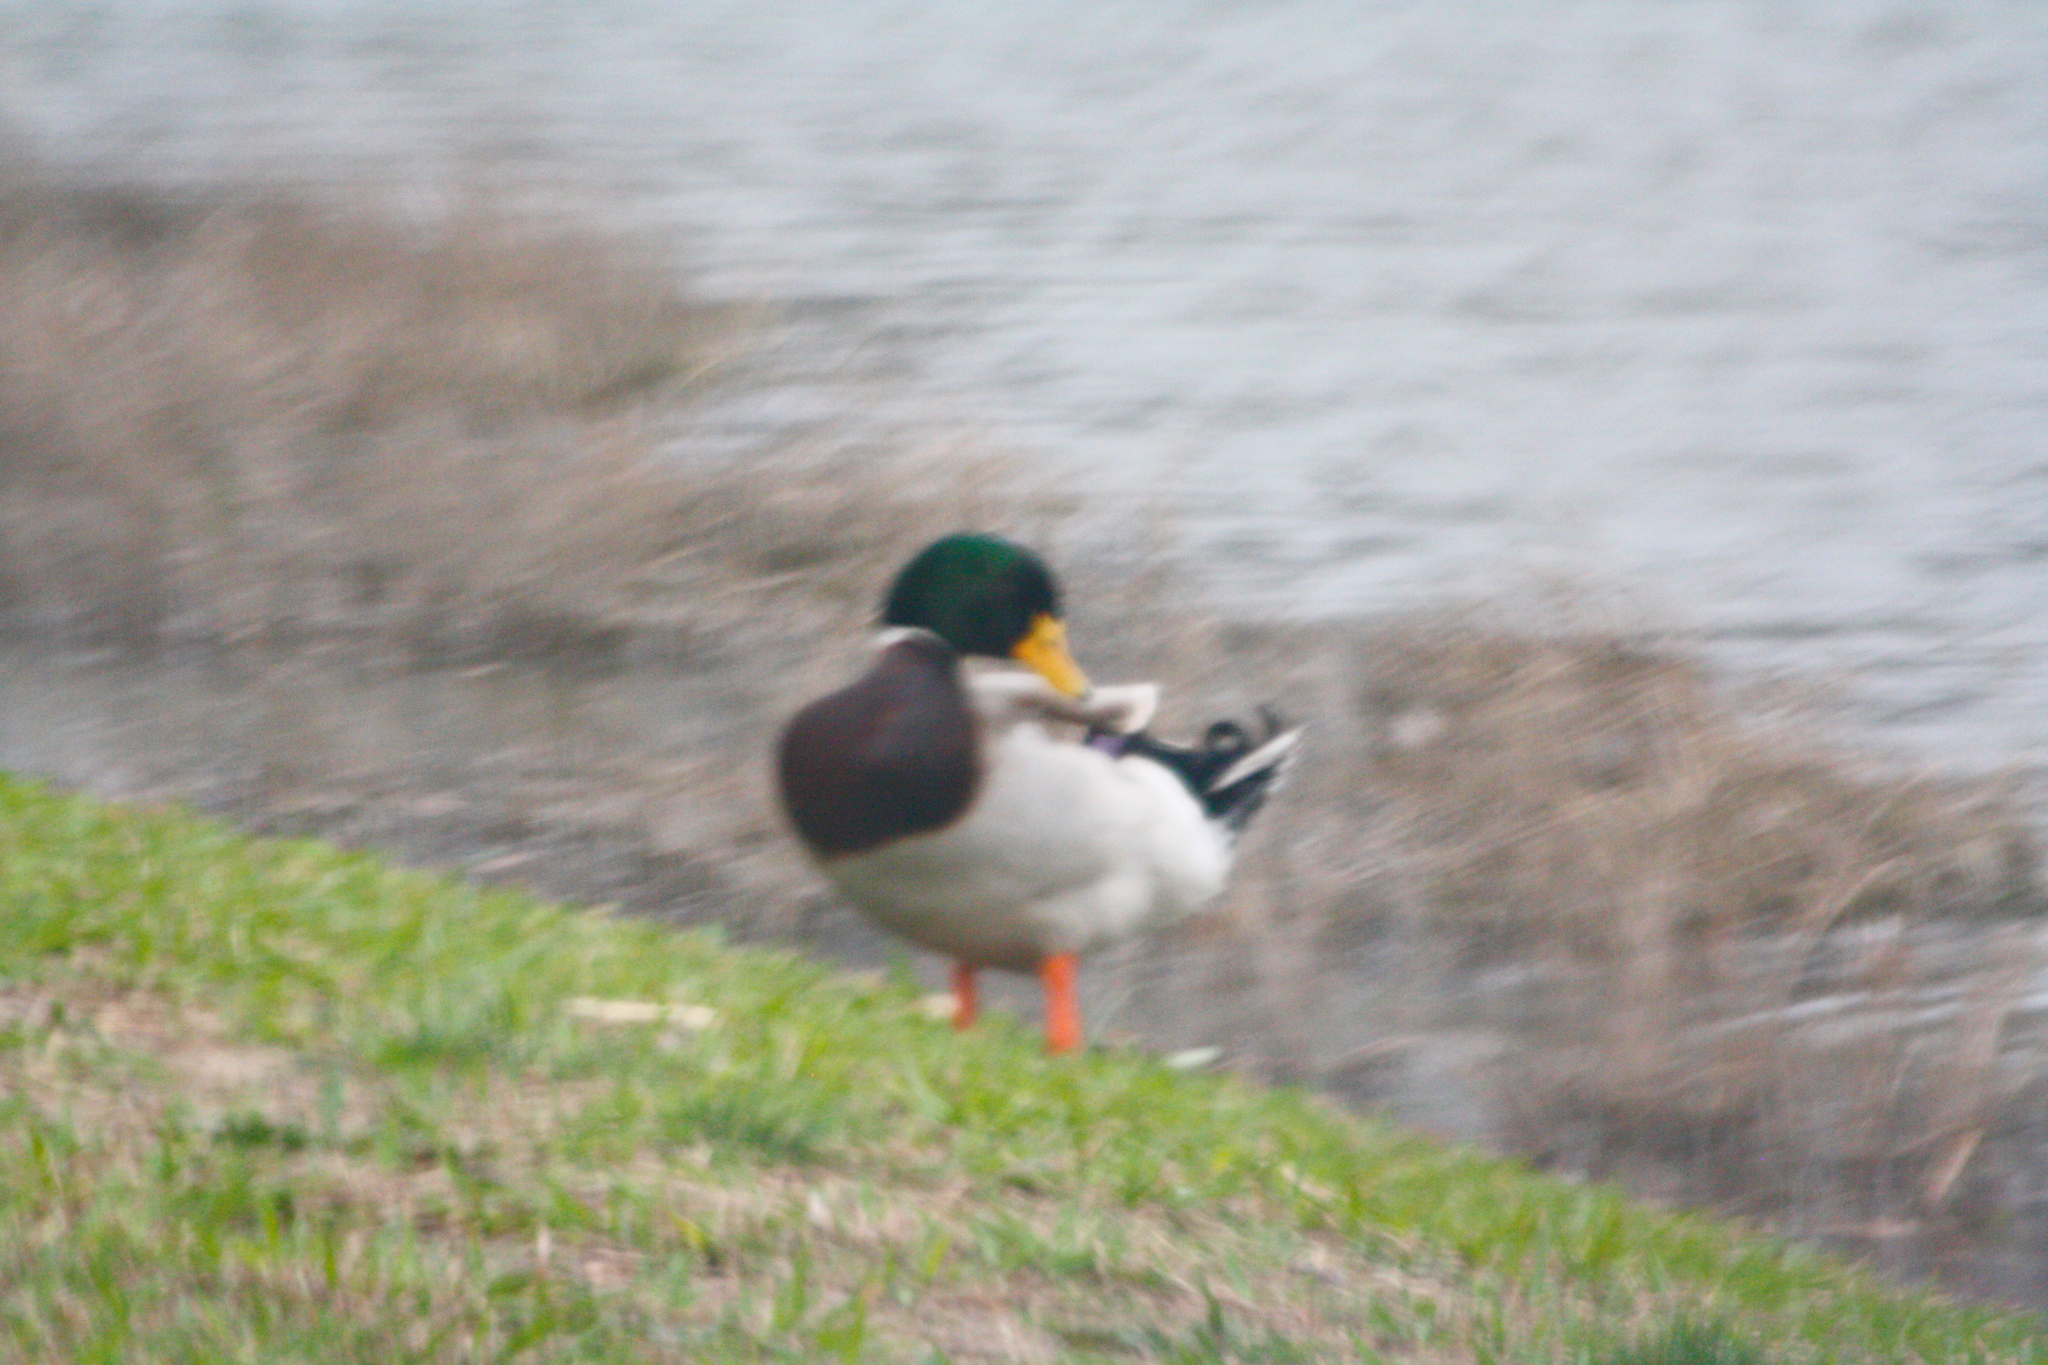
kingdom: Animalia
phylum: Chordata
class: Aves
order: Anseriformes
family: Anatidae
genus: Anas
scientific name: Anas platyrhynchos
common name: Mallard
